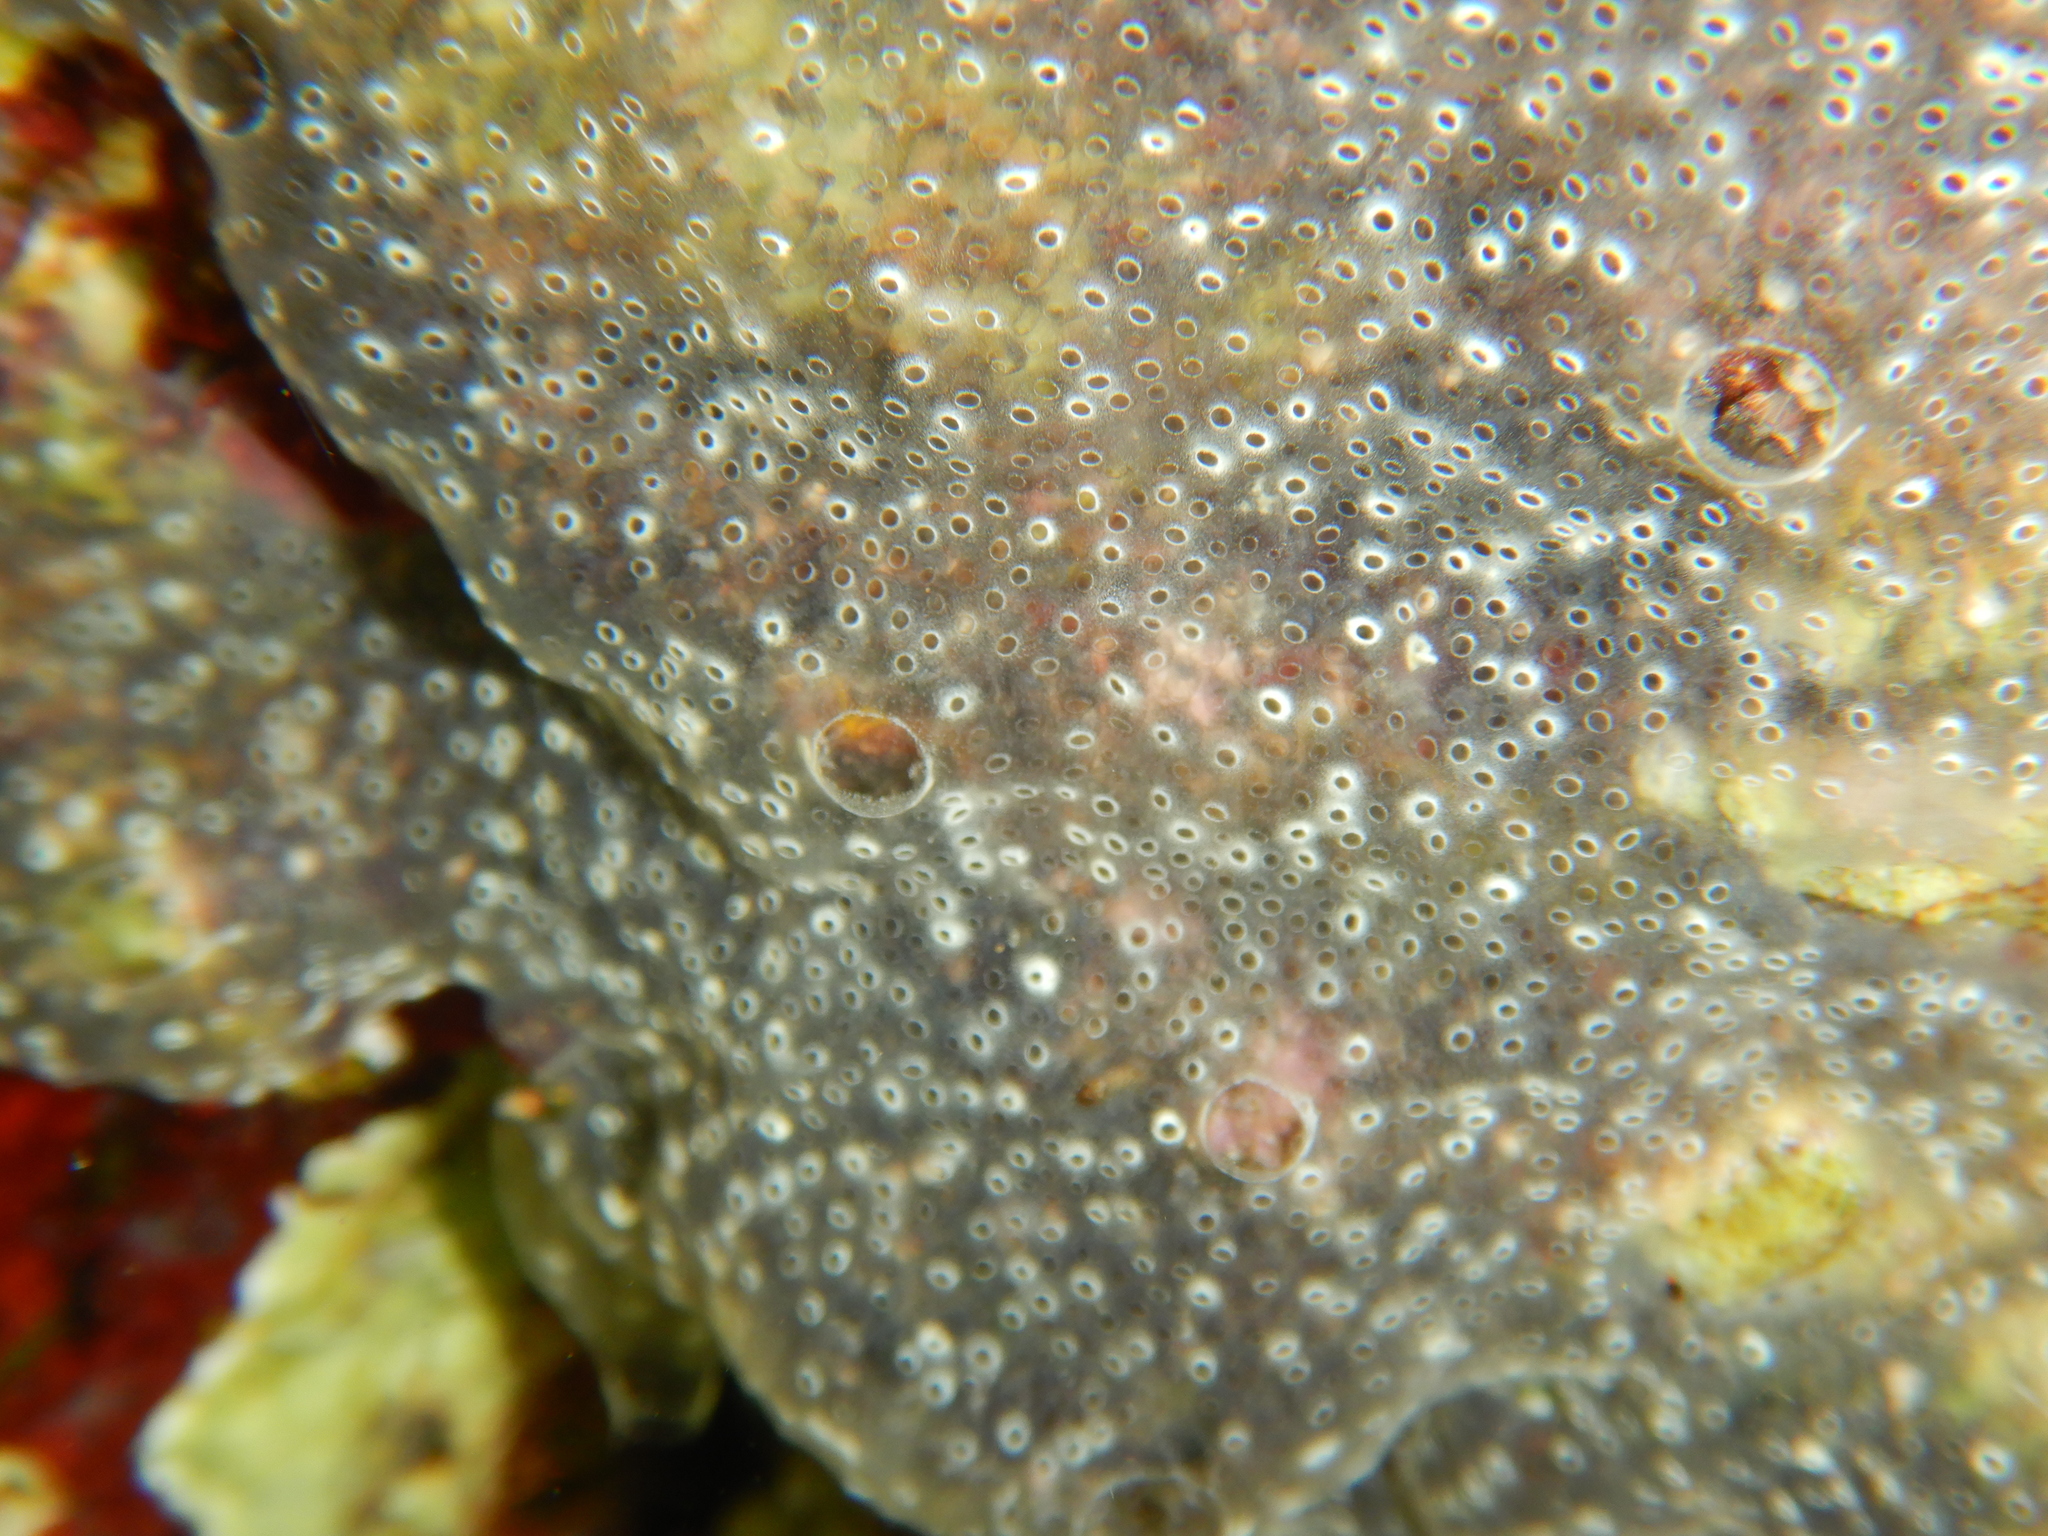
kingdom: Animalia
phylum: Chordata
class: Ascidiacea
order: Aplousobranchia
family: Didemnidae
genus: Diplosoma
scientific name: Diplosoma spongiforme
